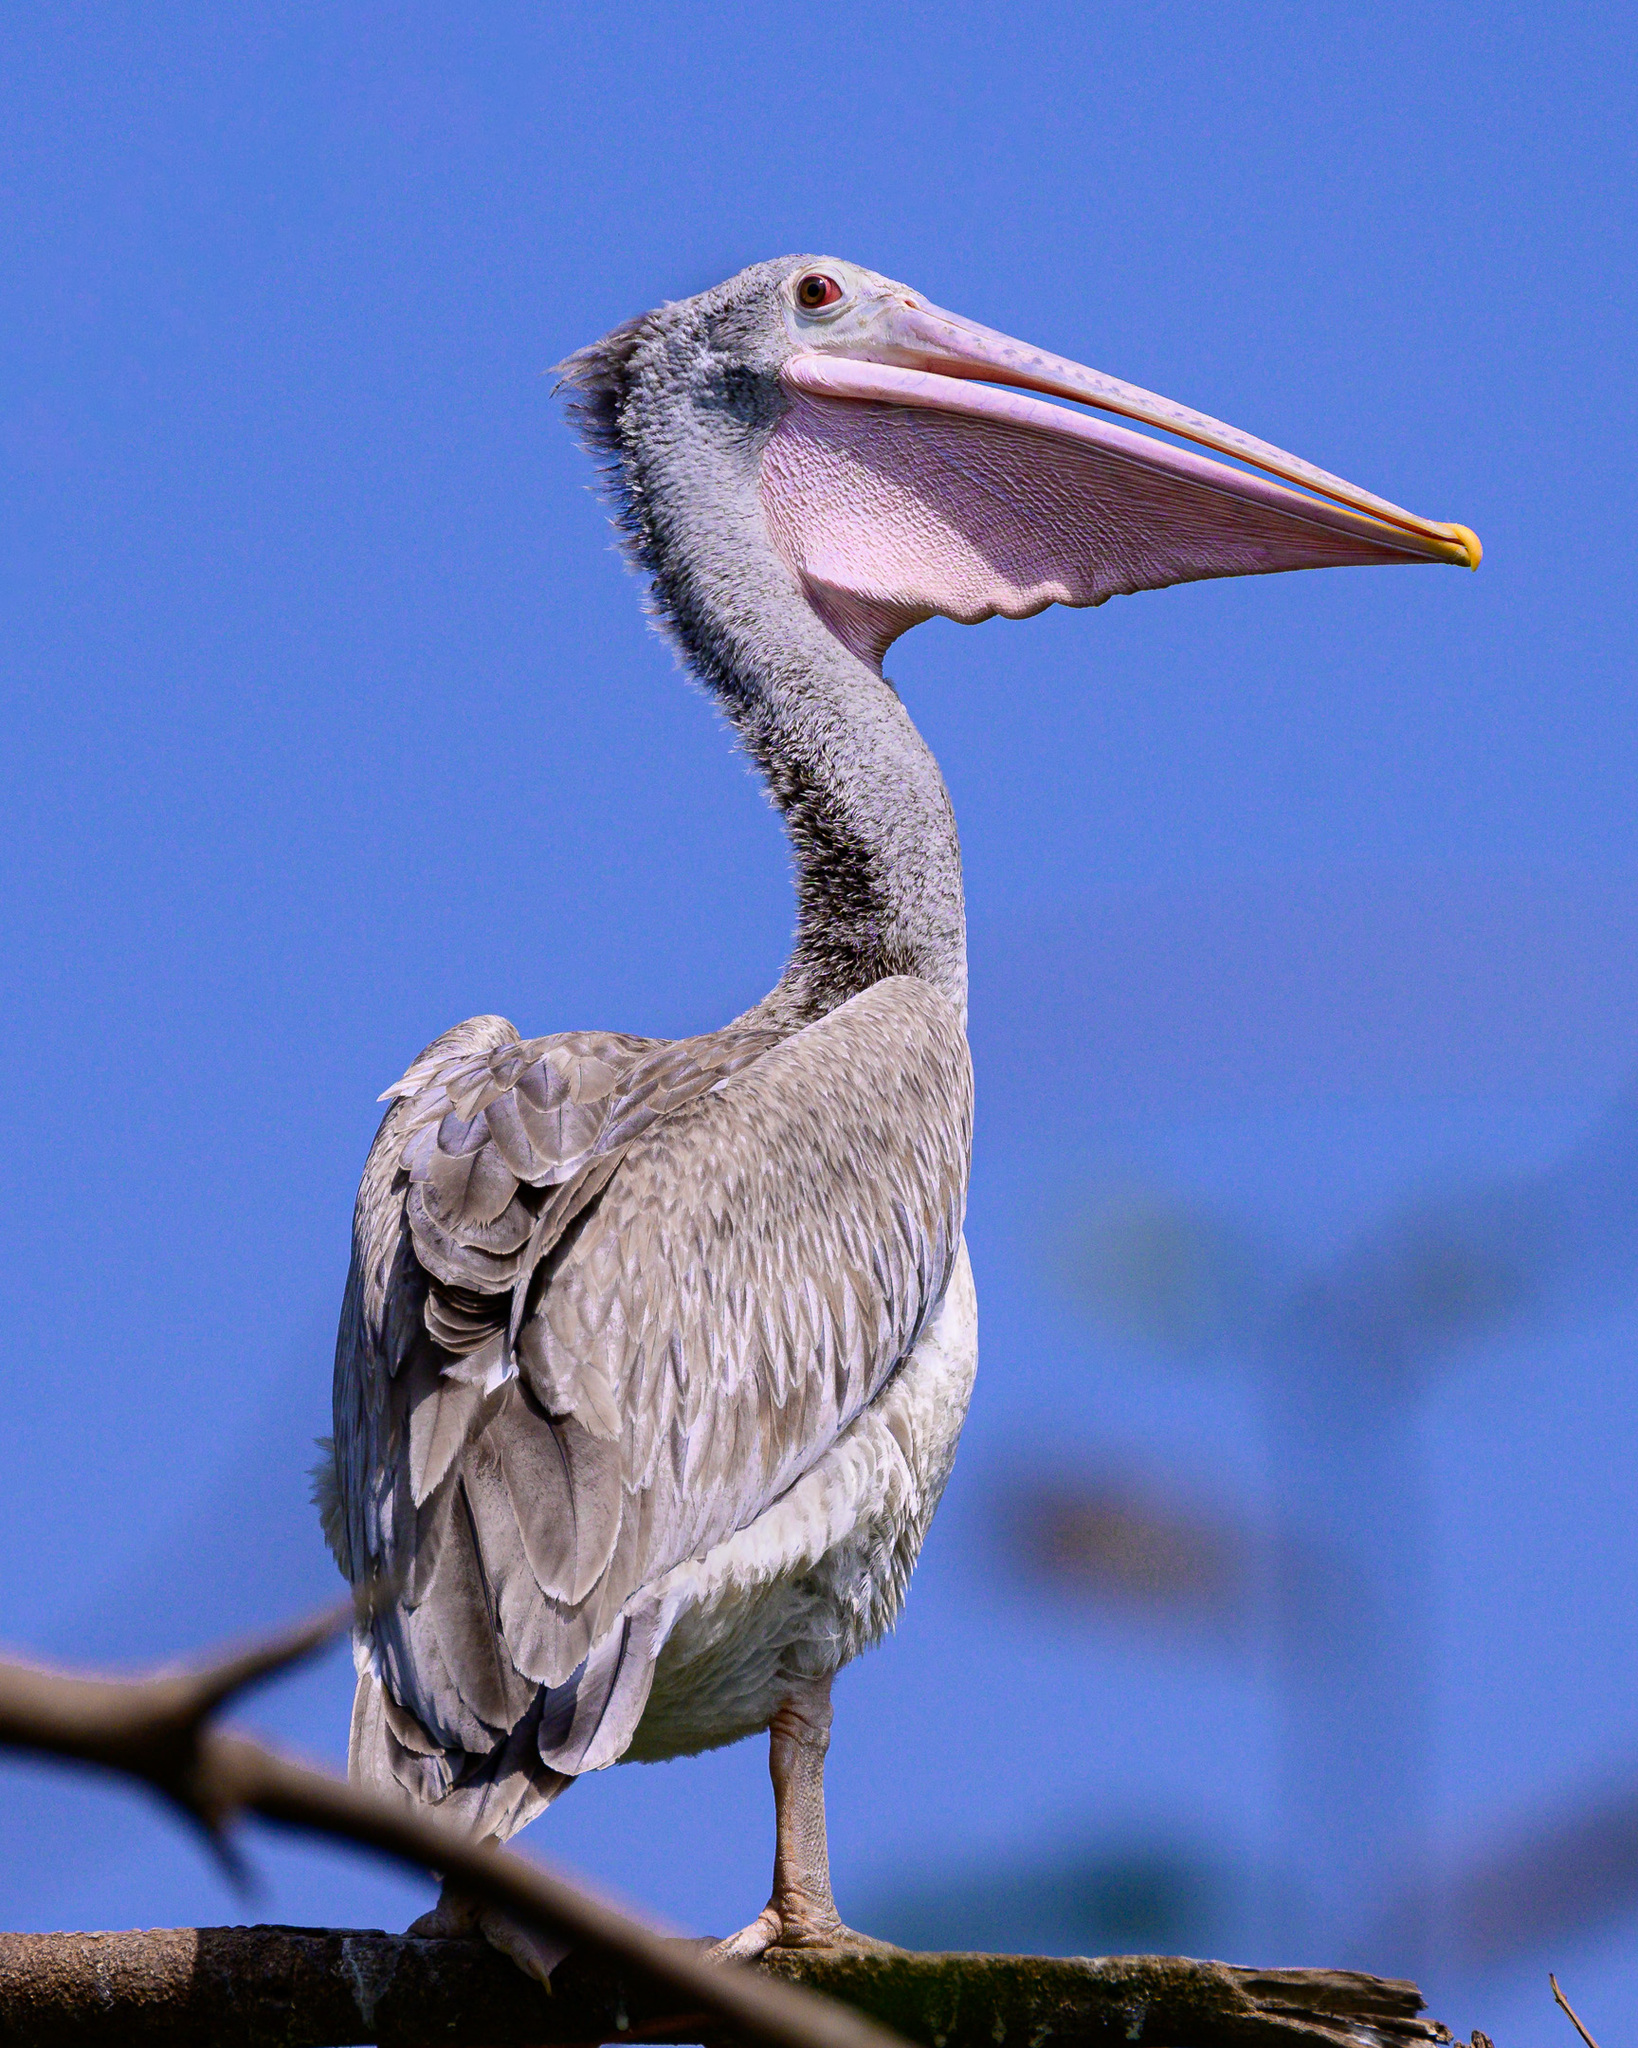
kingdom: Animalia
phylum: Chordata
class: Aves
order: Pelecaniformes
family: Pelecanidae
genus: Pelecanus
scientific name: Pelecanus philippensis
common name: Spot-billed pelican
